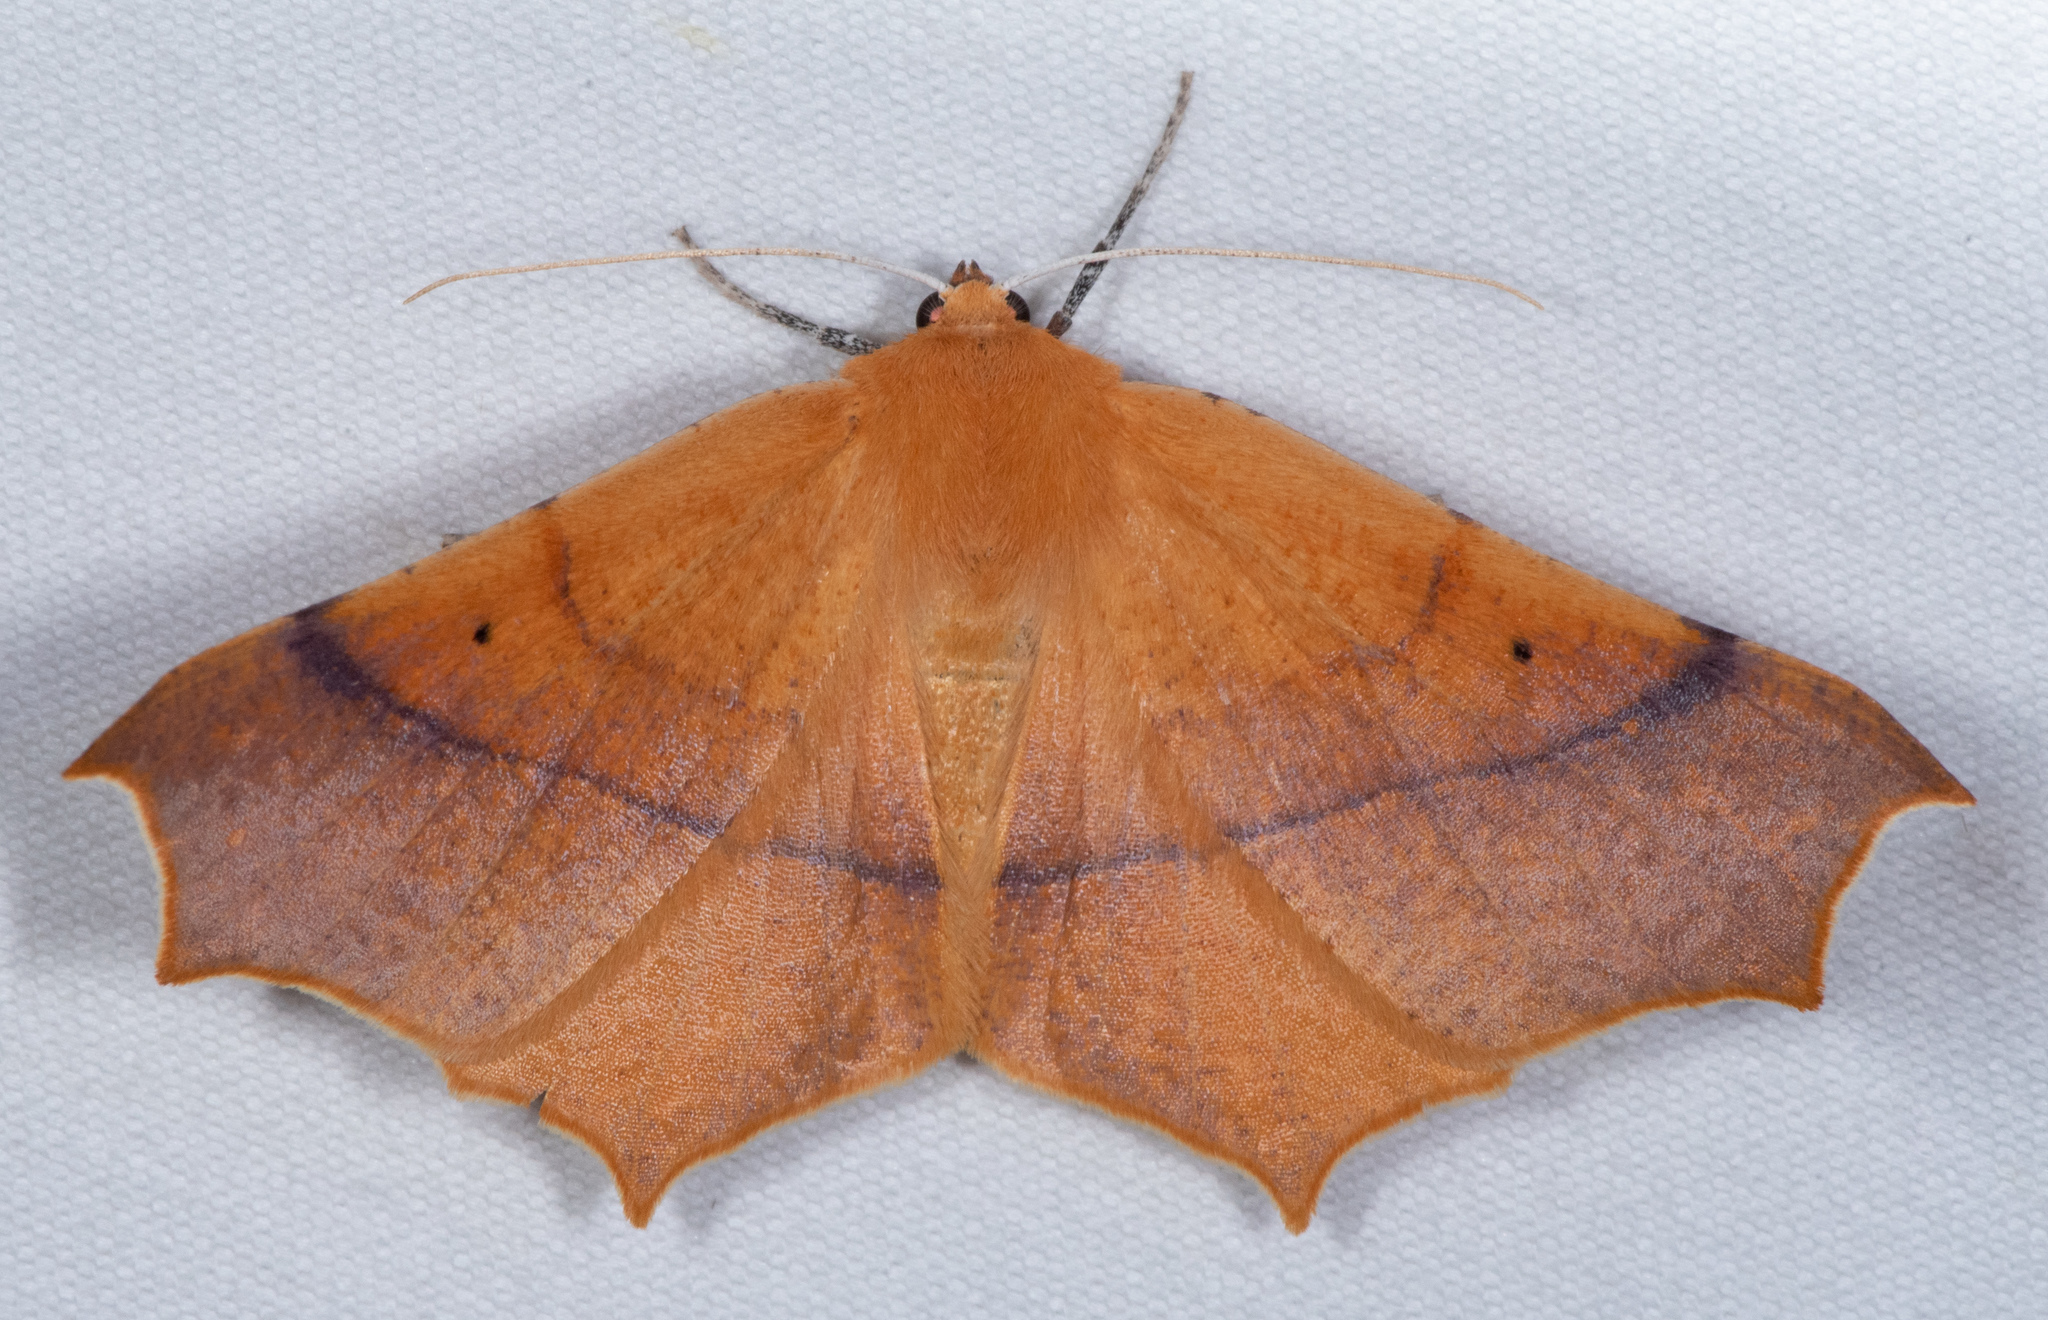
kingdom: Animalia
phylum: Arthropoda
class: Insecta
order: Lepidoptera
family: Geometridae
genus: Tetracis
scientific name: Tetracis cervinaria
